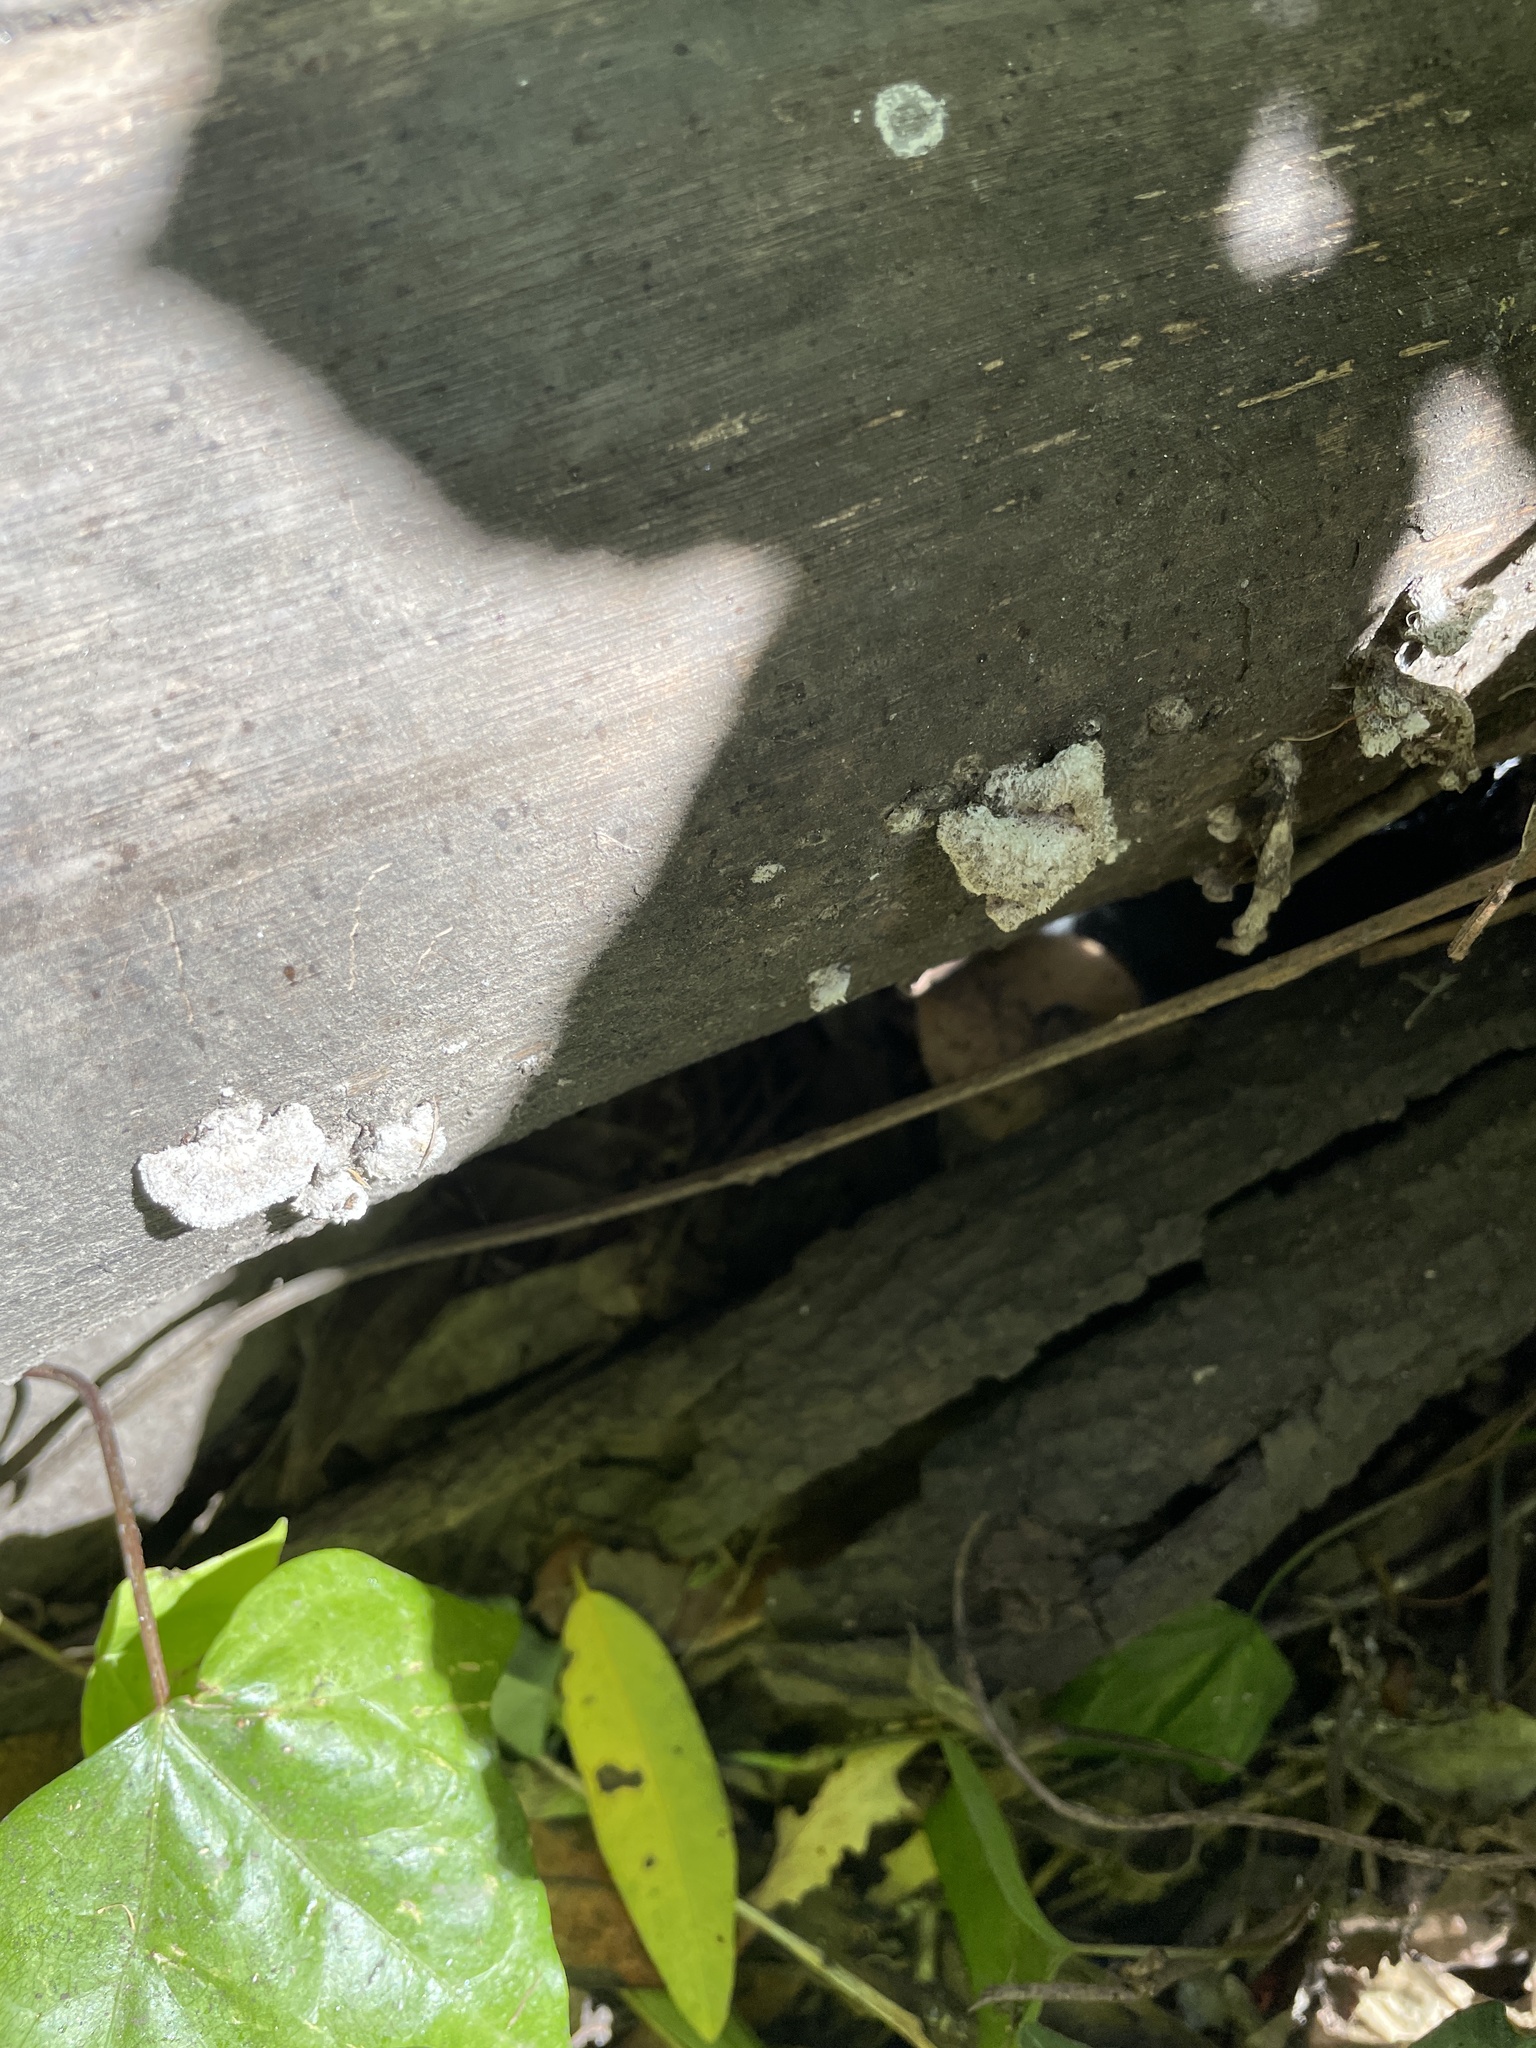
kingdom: Fungi
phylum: Basidiomycota
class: Agaricomycetes
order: Agaricales
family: Schizophyllaceae
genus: Schizophyllum
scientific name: Schizophyllum commune
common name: Common porecrust
